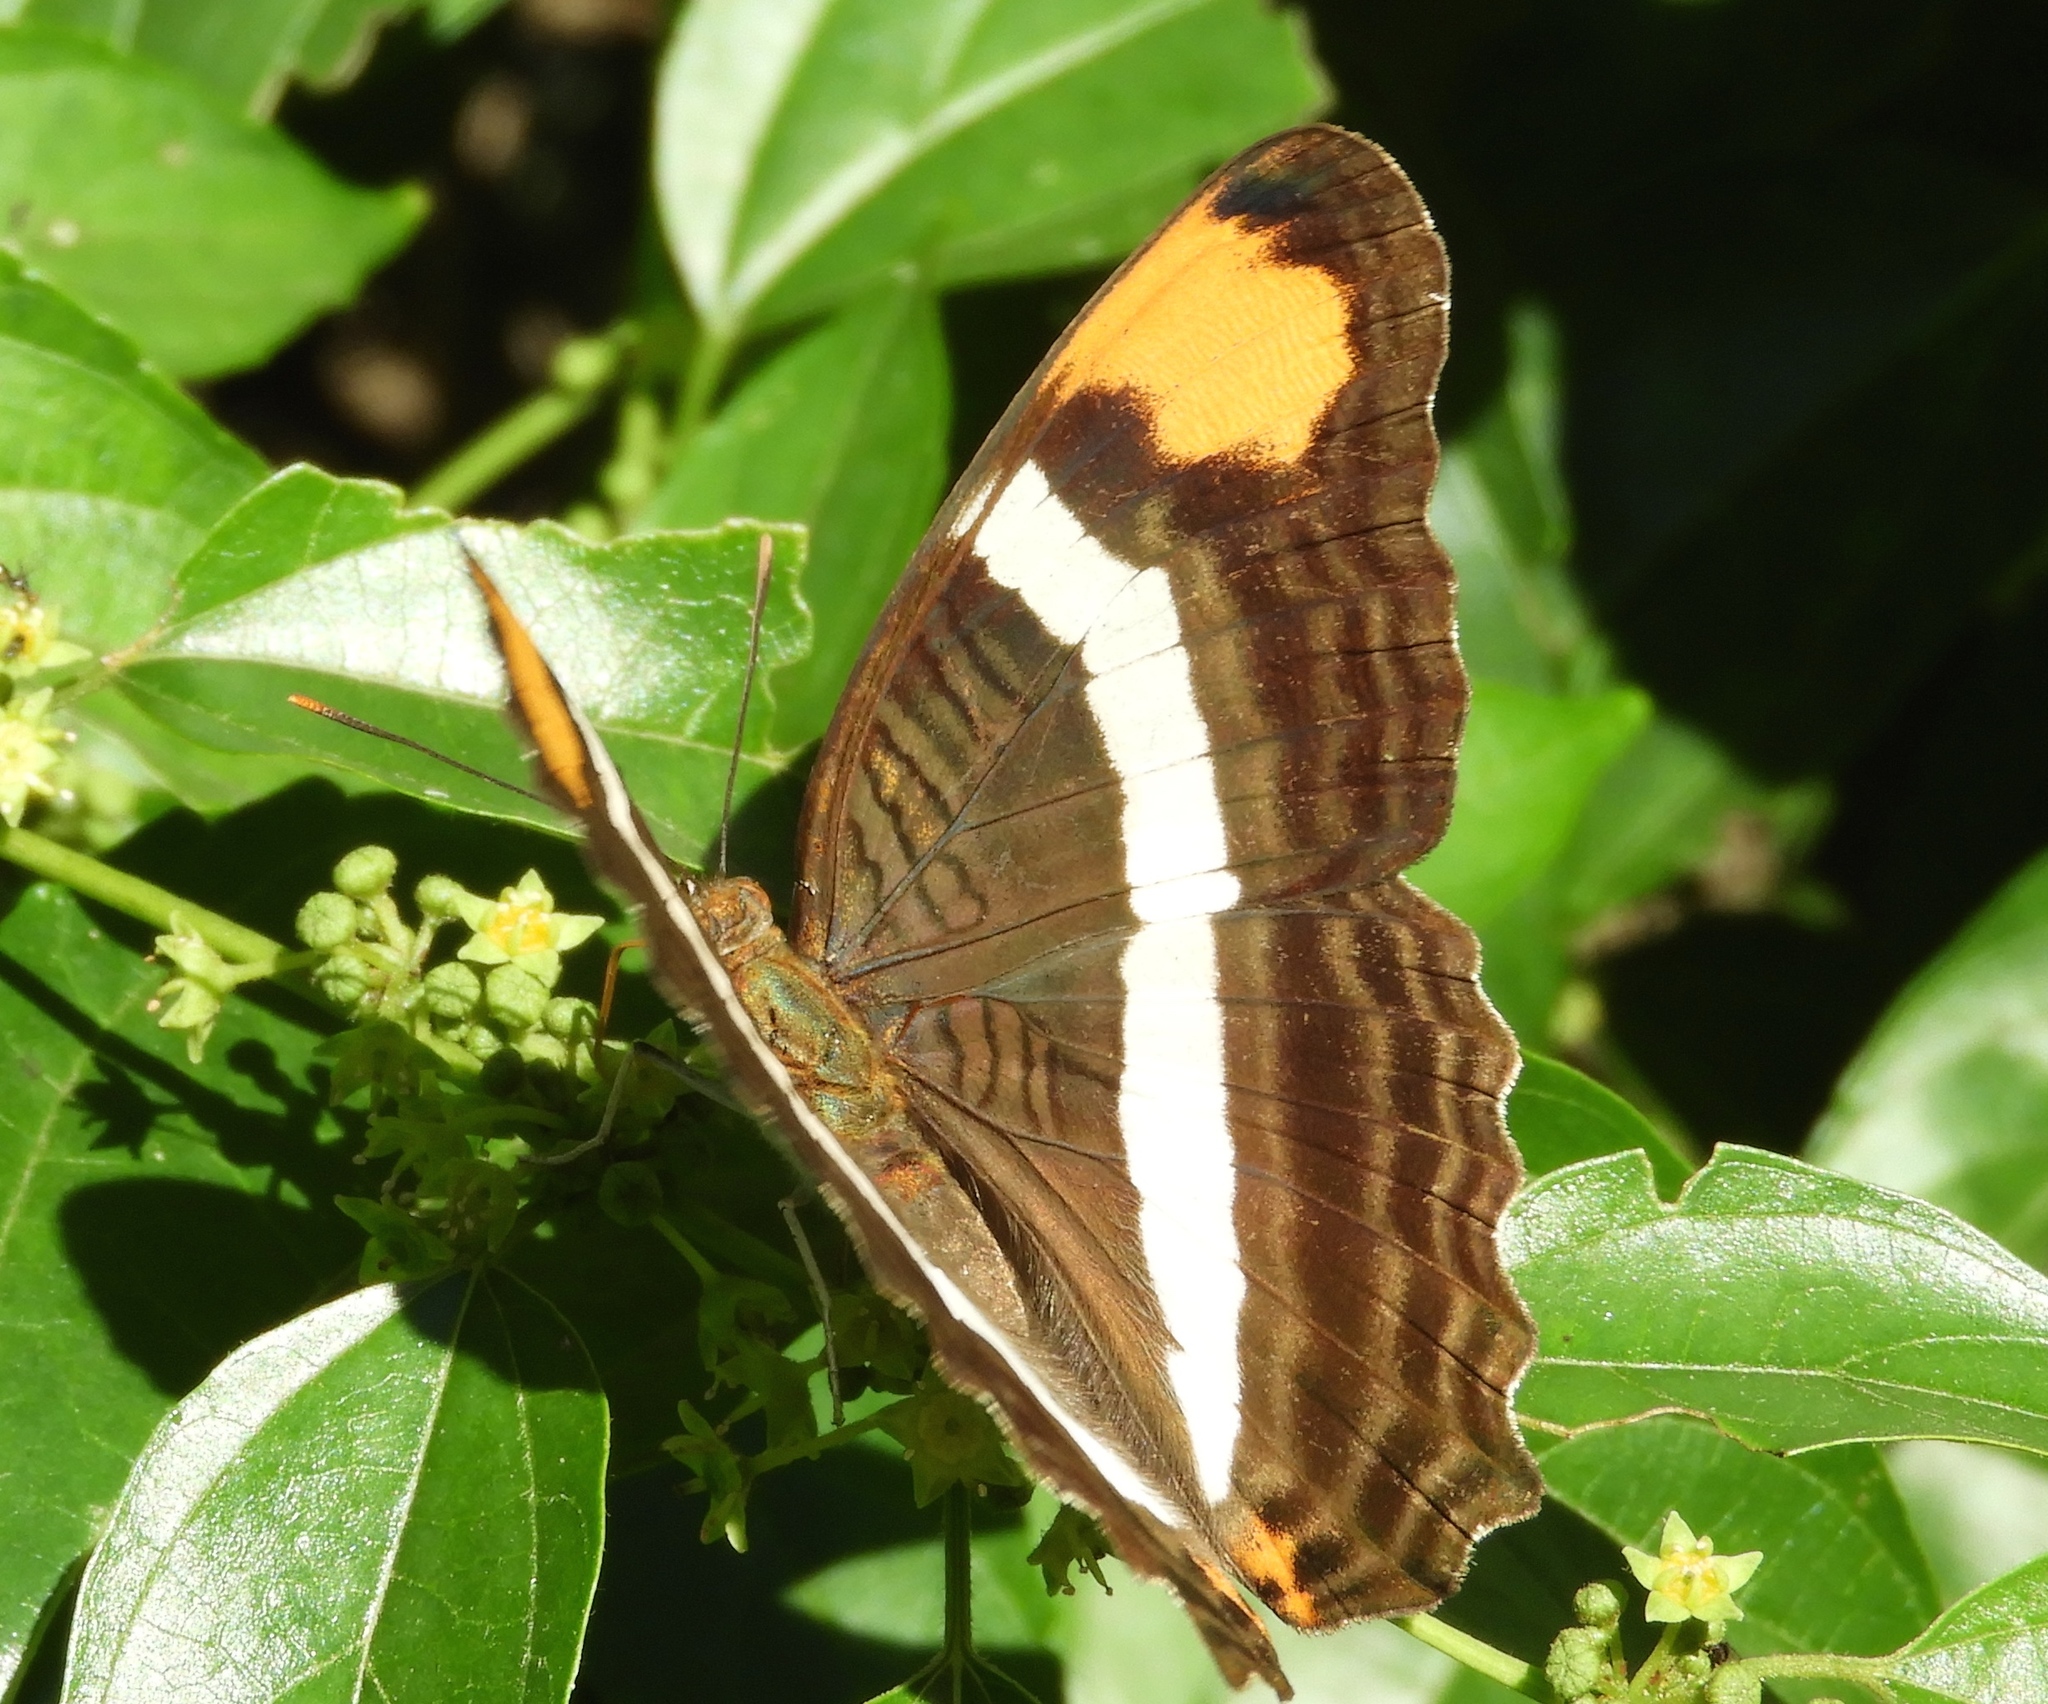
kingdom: Animalia
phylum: Arthropoda
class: Insecta
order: Lepidoptera
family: Nymphalidae
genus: Limenitis
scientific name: Limenitis fessonia
